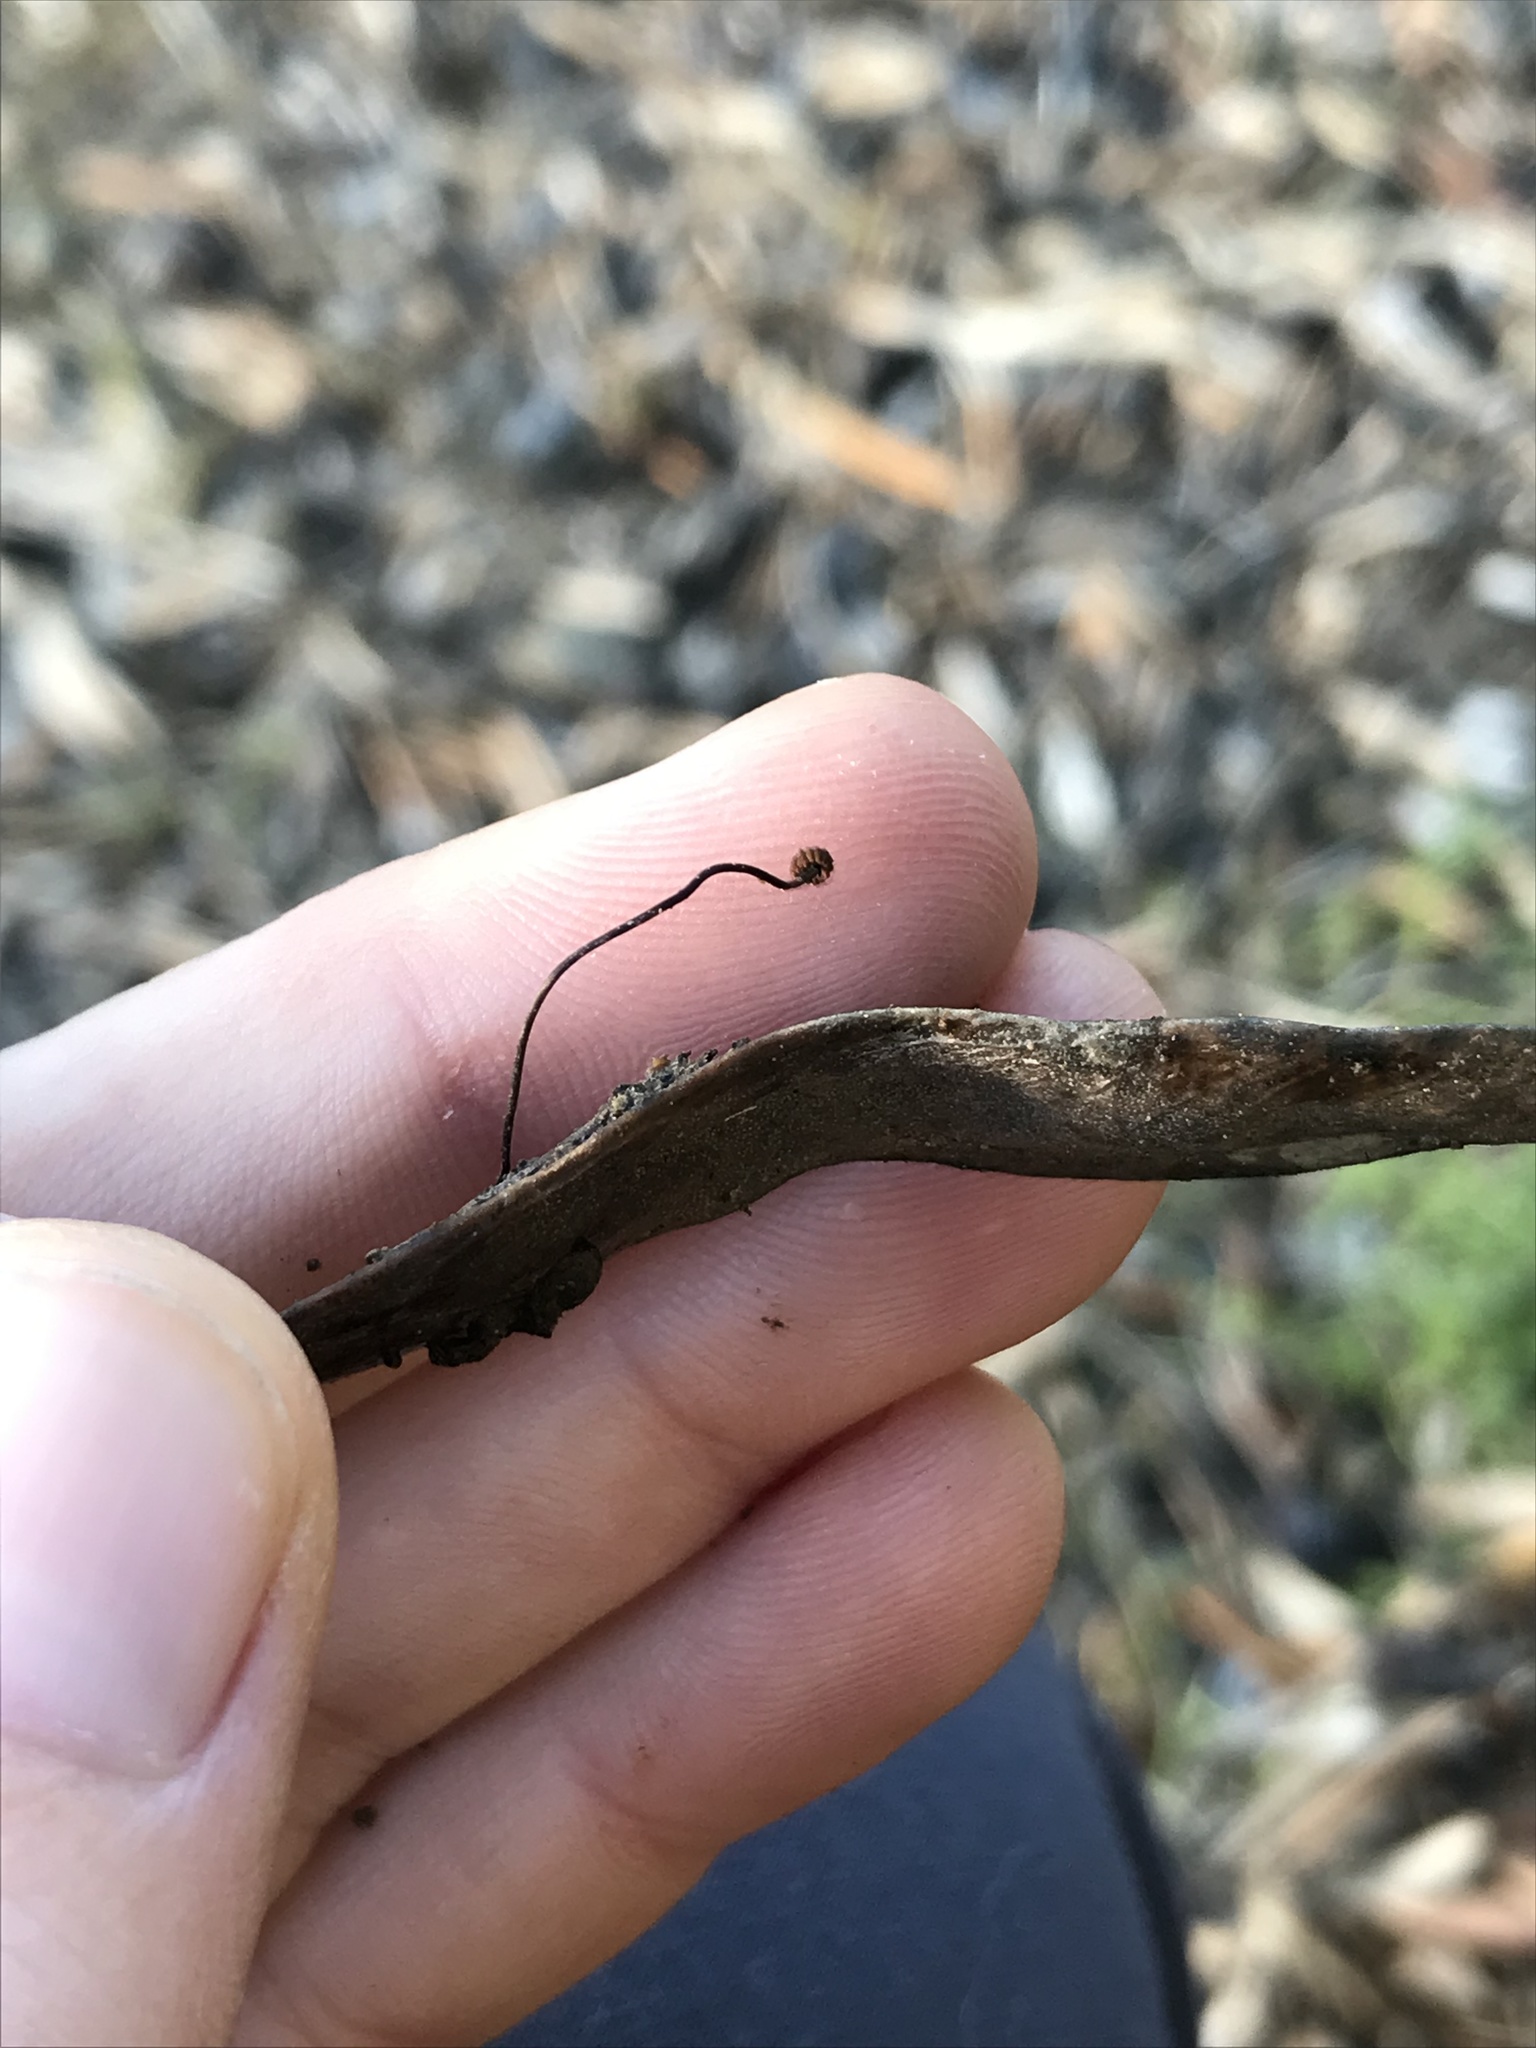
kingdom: Fungi
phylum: Basidiomycota
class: Agaricomycetes
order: Agaricales
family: Physalacriaceae
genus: Cryptomarasmius
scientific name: Cryptomarasmius corbariensis
